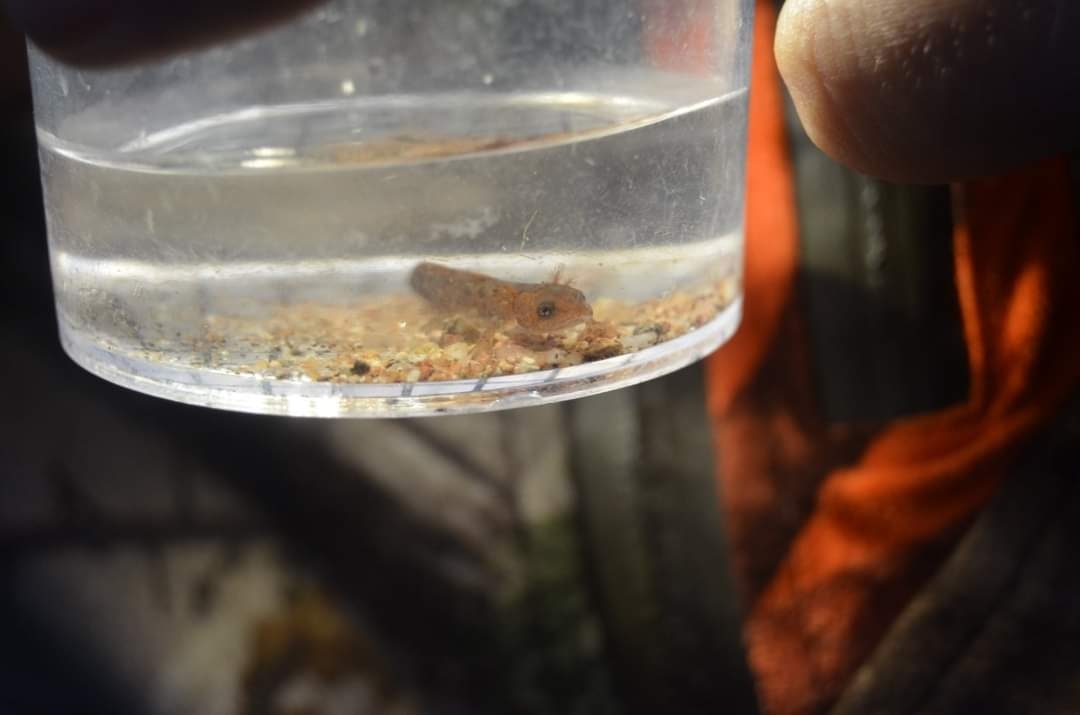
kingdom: Animalia
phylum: Chordata
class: Amphibia
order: Caudata
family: Salamandridae
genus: Salamandra
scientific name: Salamandra salamandra
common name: Fire salamander
